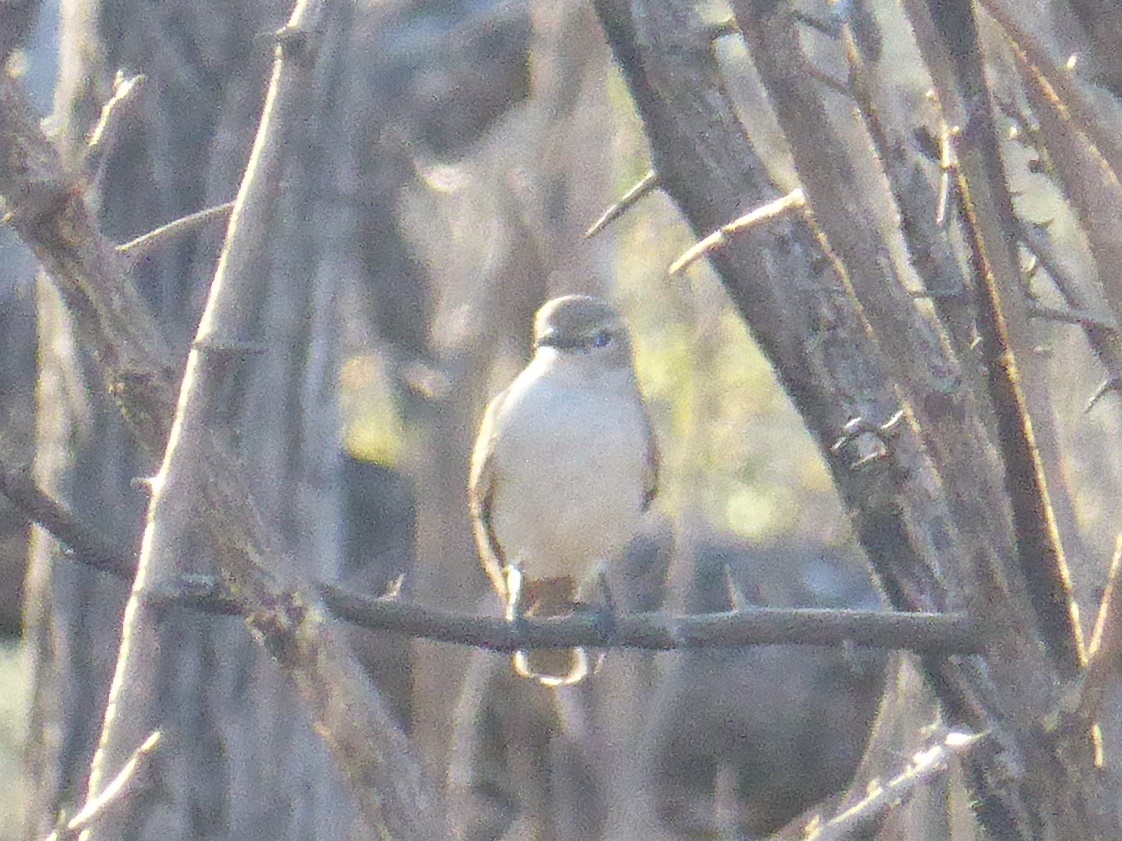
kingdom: Animalia
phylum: Chordata
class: Aves
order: Passeriformes
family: Muscicapidae
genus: Bradornis
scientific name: Bradornis pallidus
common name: Pale flycatcher
